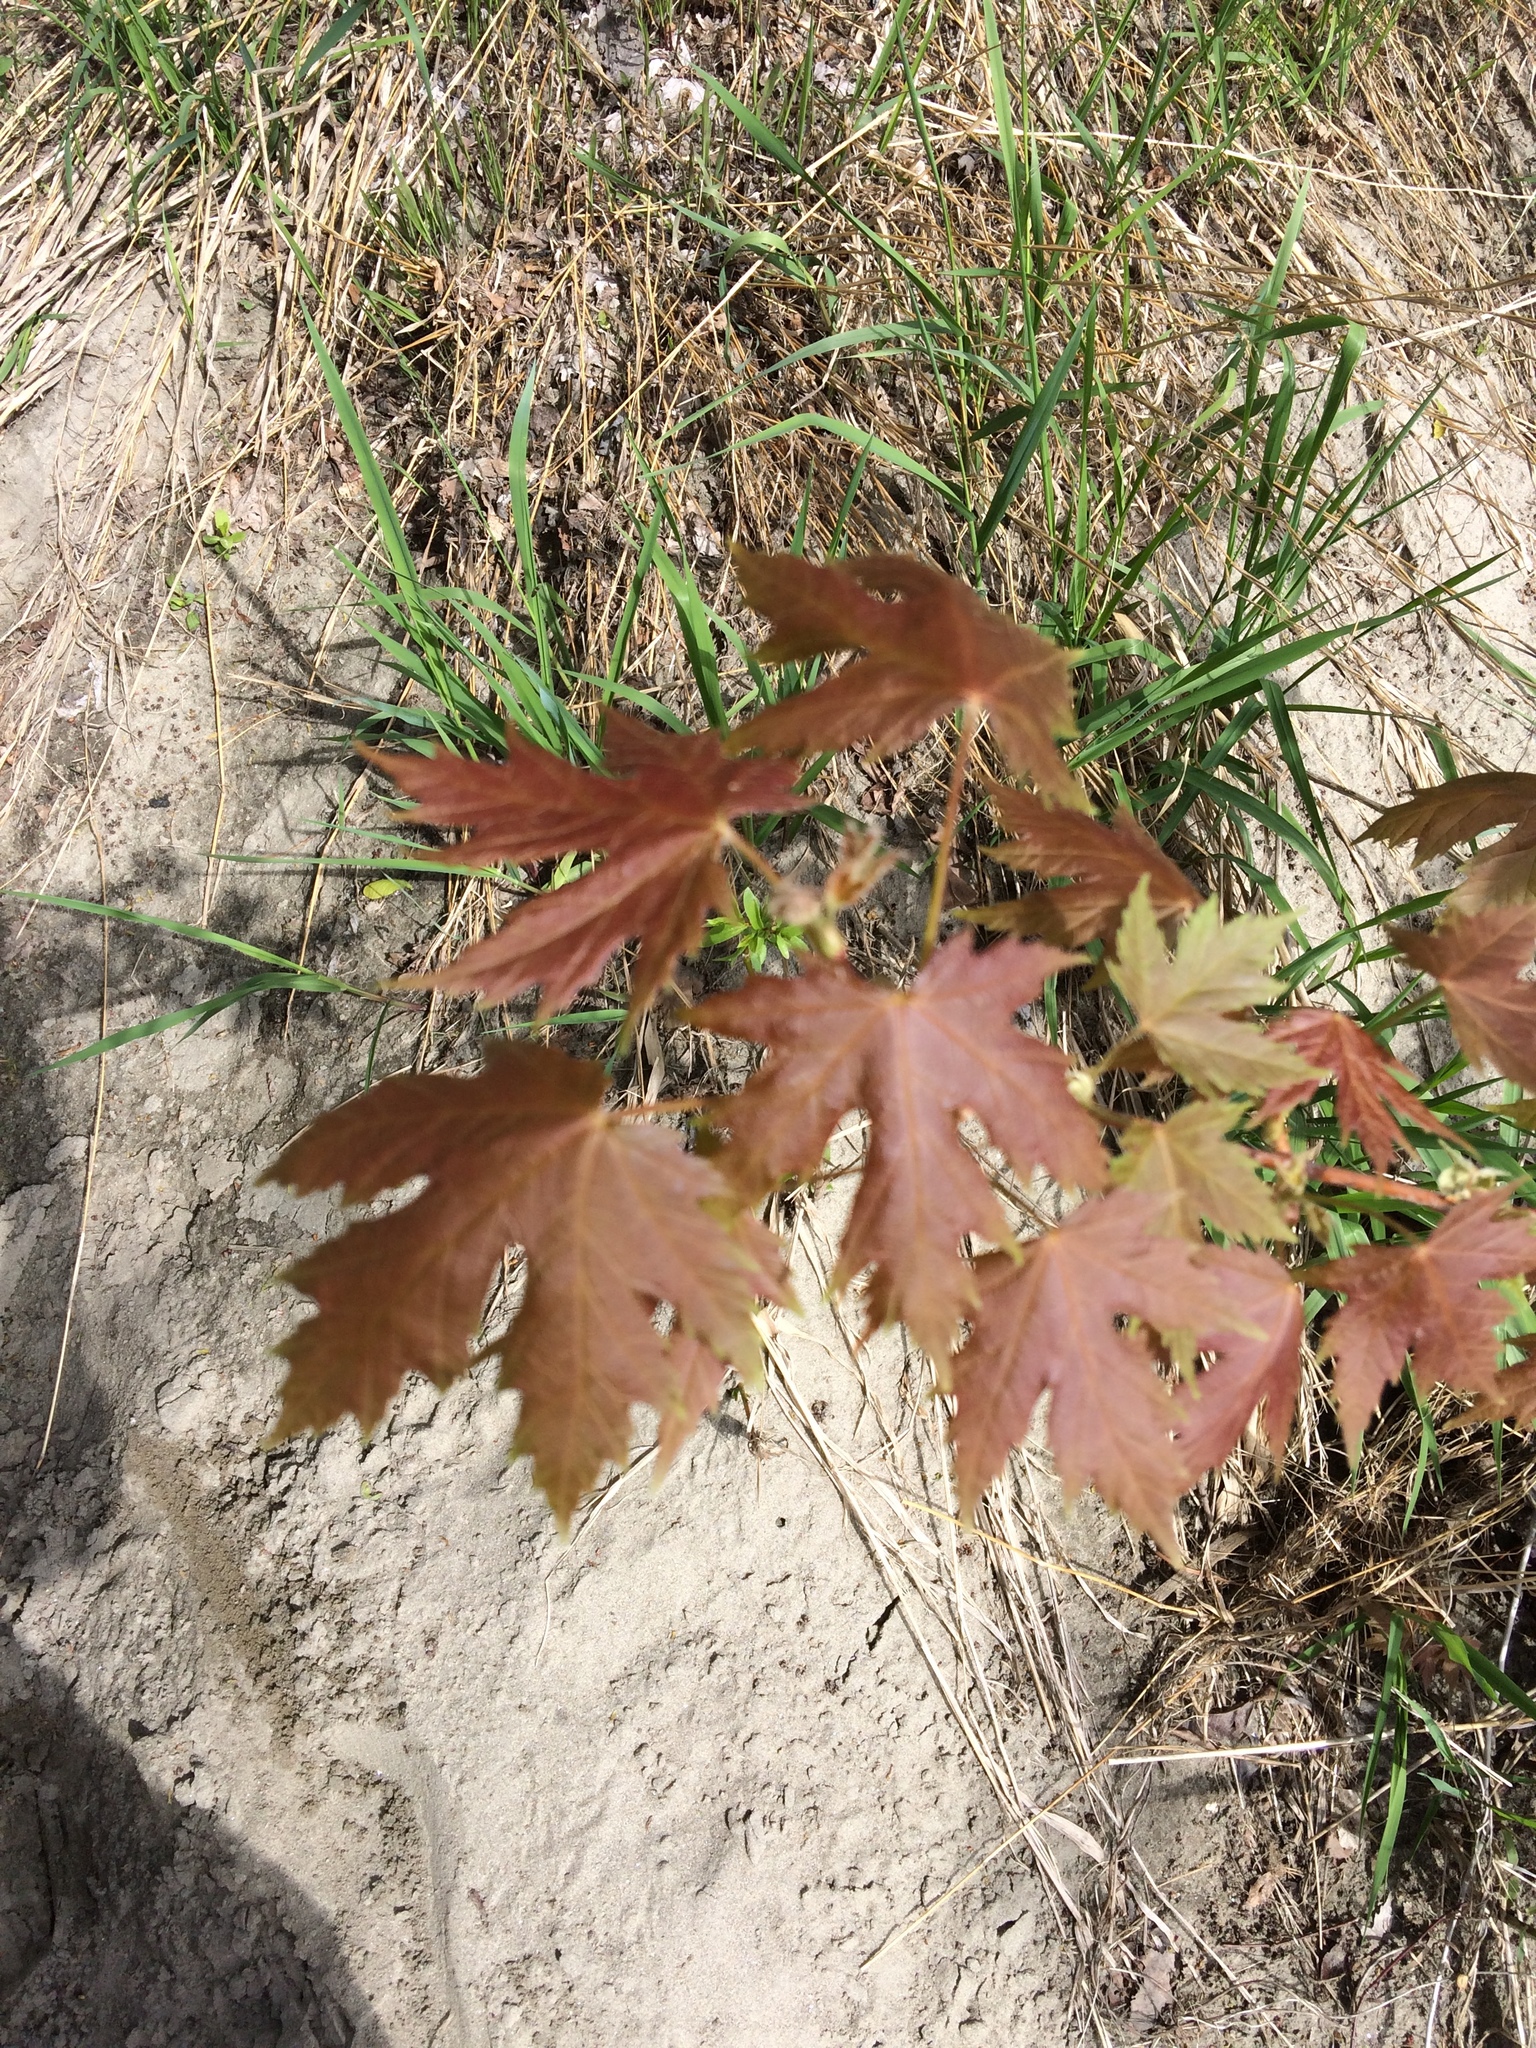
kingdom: Plantae
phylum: Tracheophyta
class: Magnoliopsida
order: Sapindales
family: Sapindaceae
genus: Acer
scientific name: Acer saccharinum
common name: Silver maple
